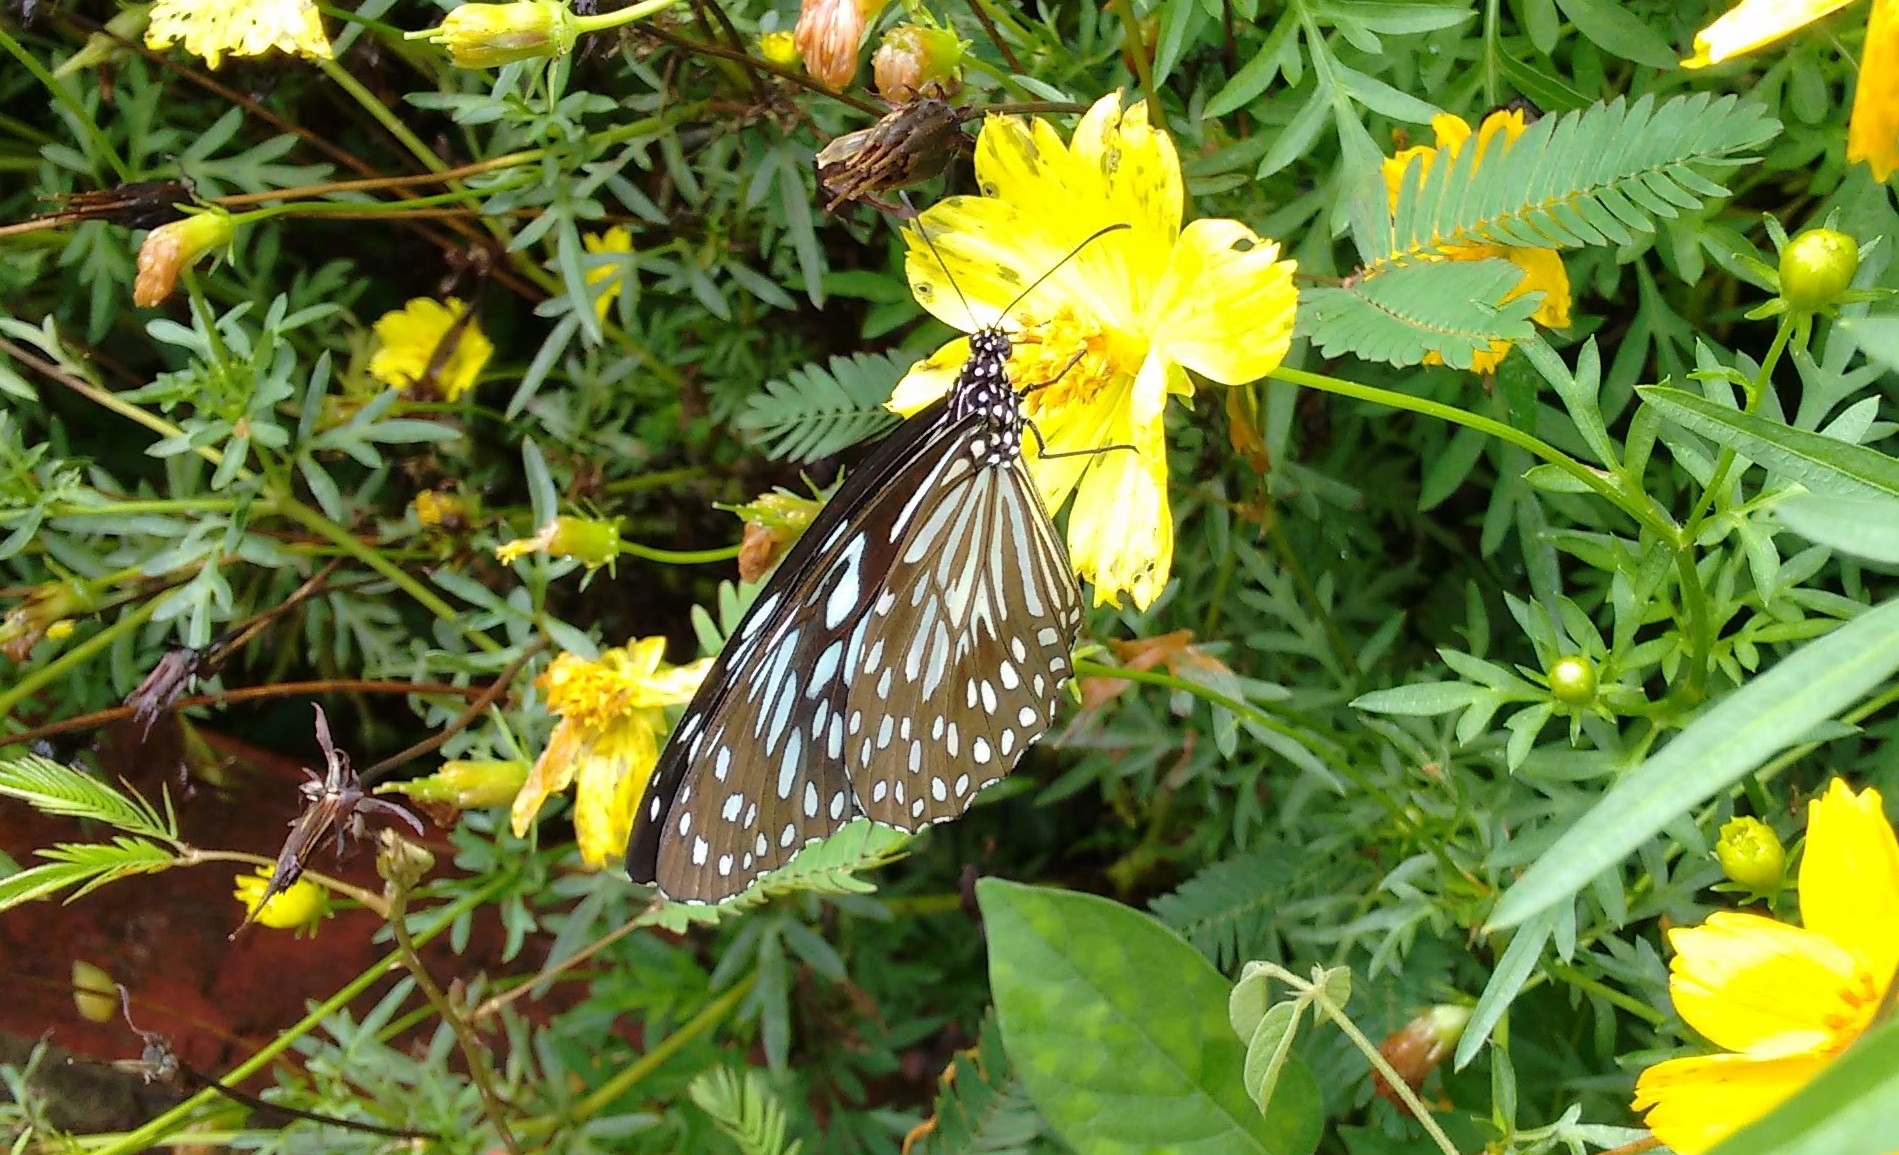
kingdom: Animalia
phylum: Arthropoda
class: Insecta
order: Lepidoptera
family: Nymphalidae
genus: Tirumala
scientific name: Tirumala septentrionis
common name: Dark blue tiger butterfly
